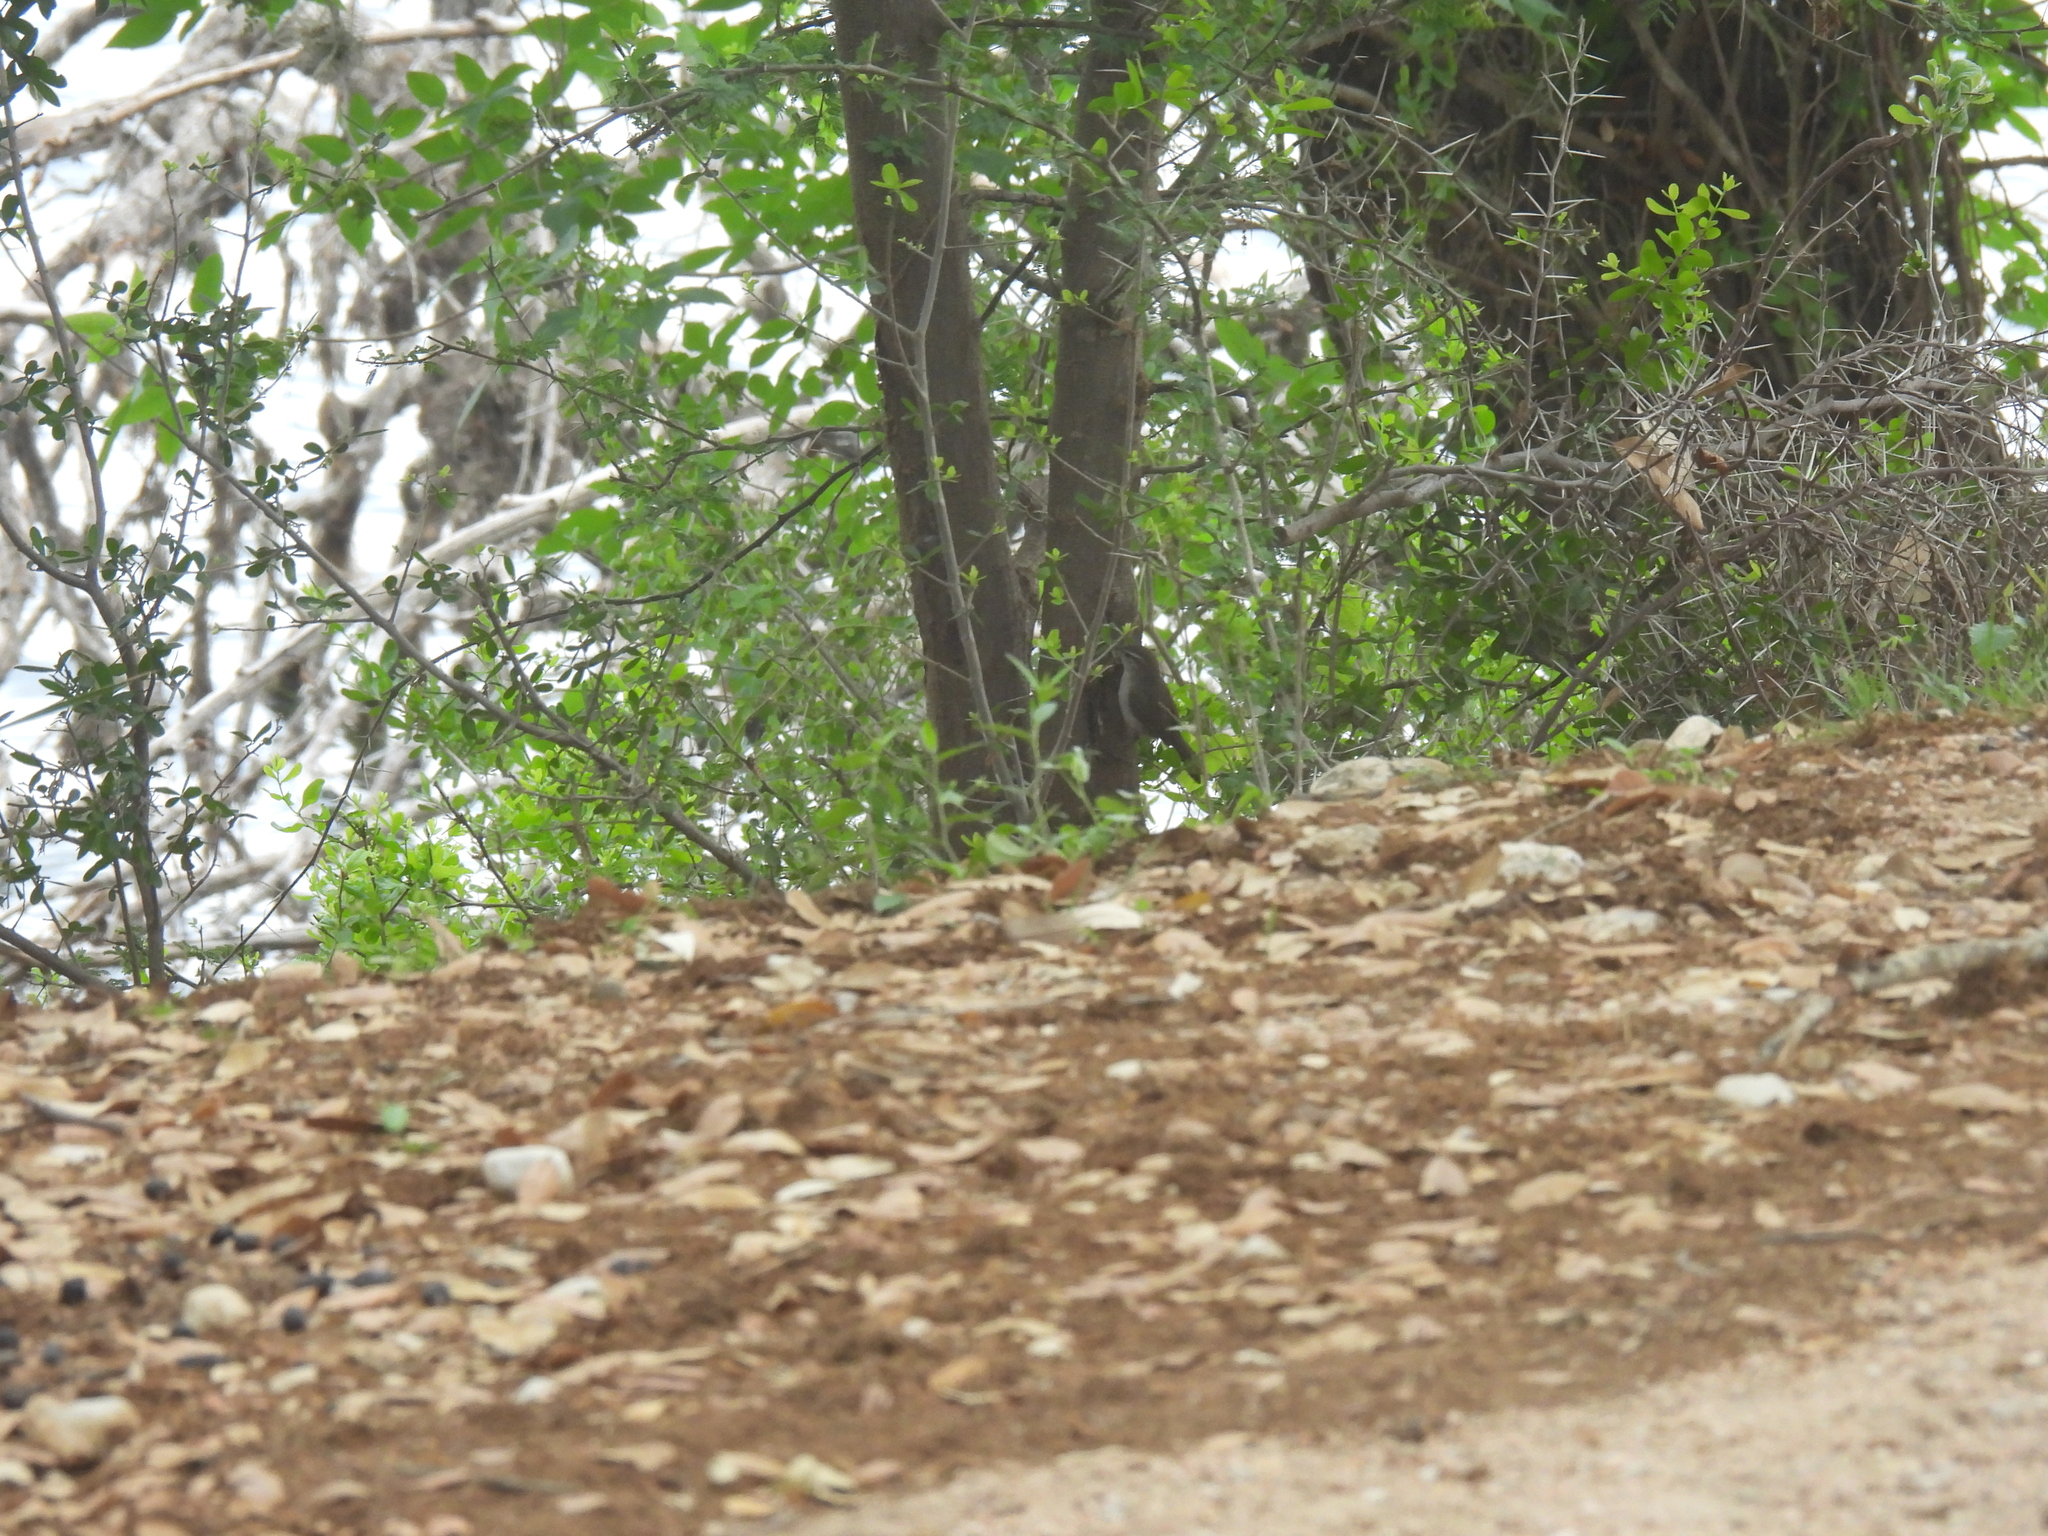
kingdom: Animalia
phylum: Chordata
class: Aves
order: Passeriformes
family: Troglodytidae
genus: Thryomanes
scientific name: Thryomanes bewickii
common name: Bewick's wren
